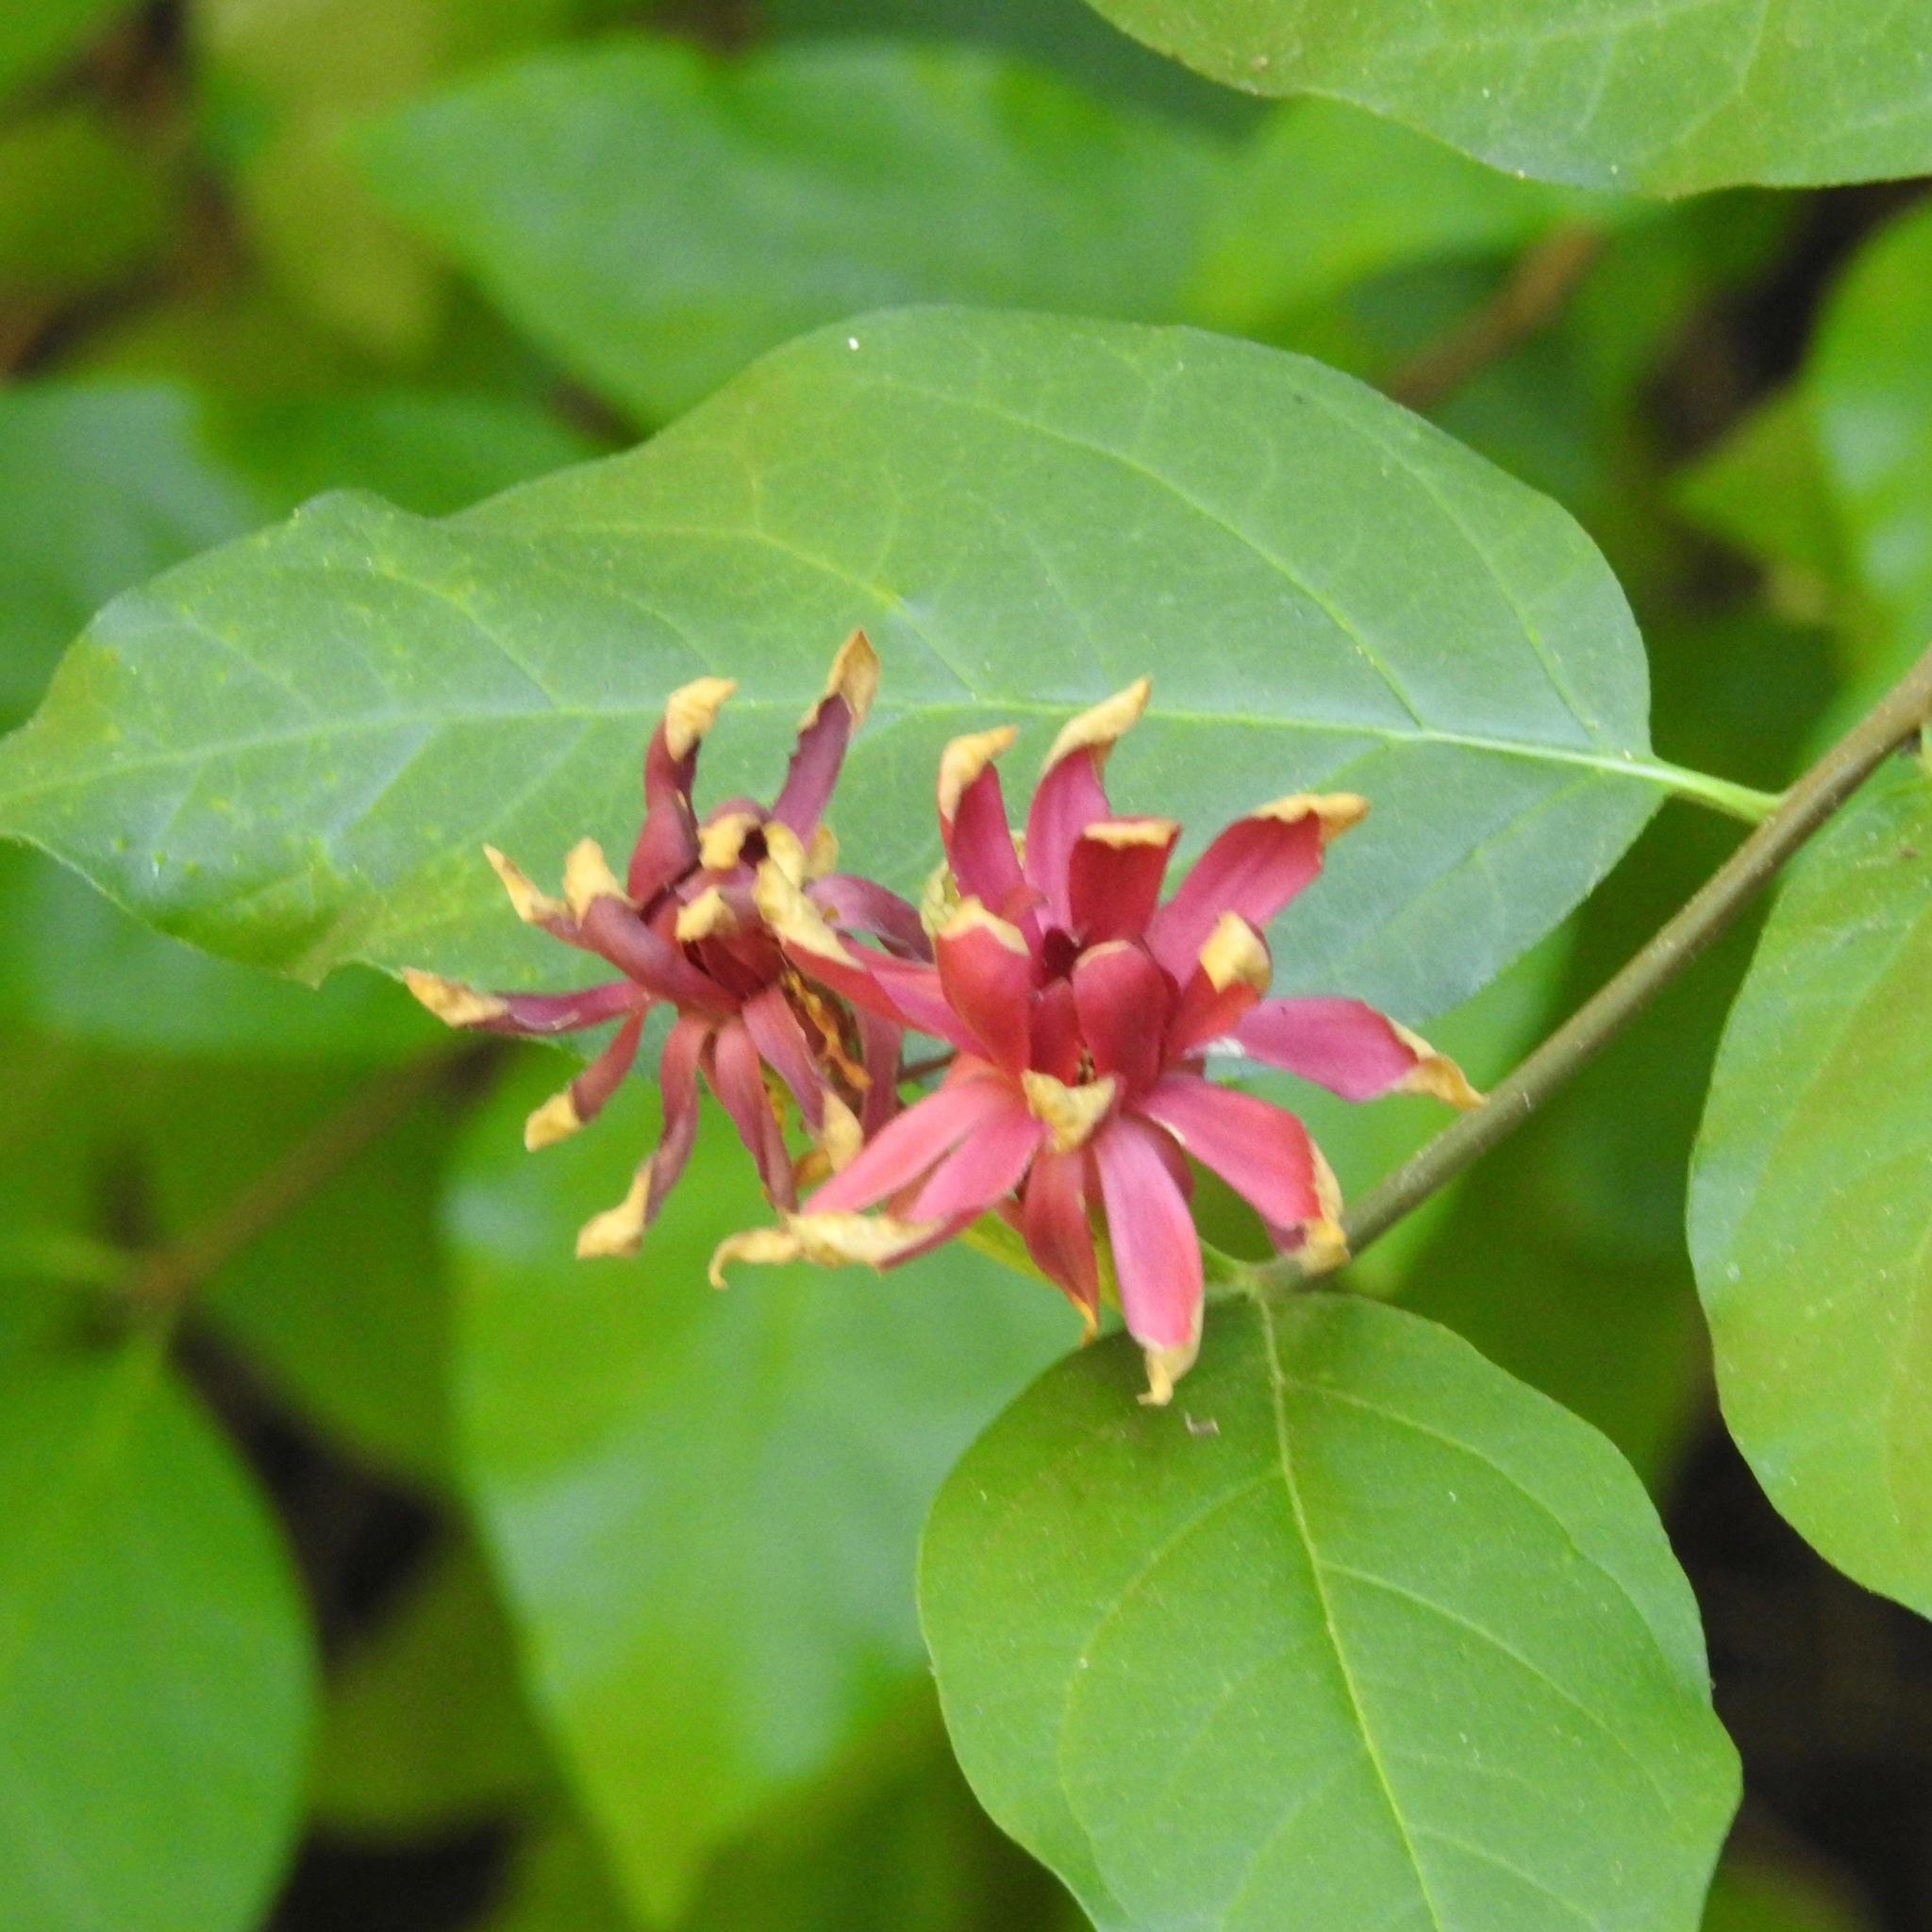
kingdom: Plantae
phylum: Tracheophyta
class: Magnoliopsida
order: Laurales
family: Calycanthaceae
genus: Calycanthus
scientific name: Calycanthus occidentalis
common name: California spicebush
